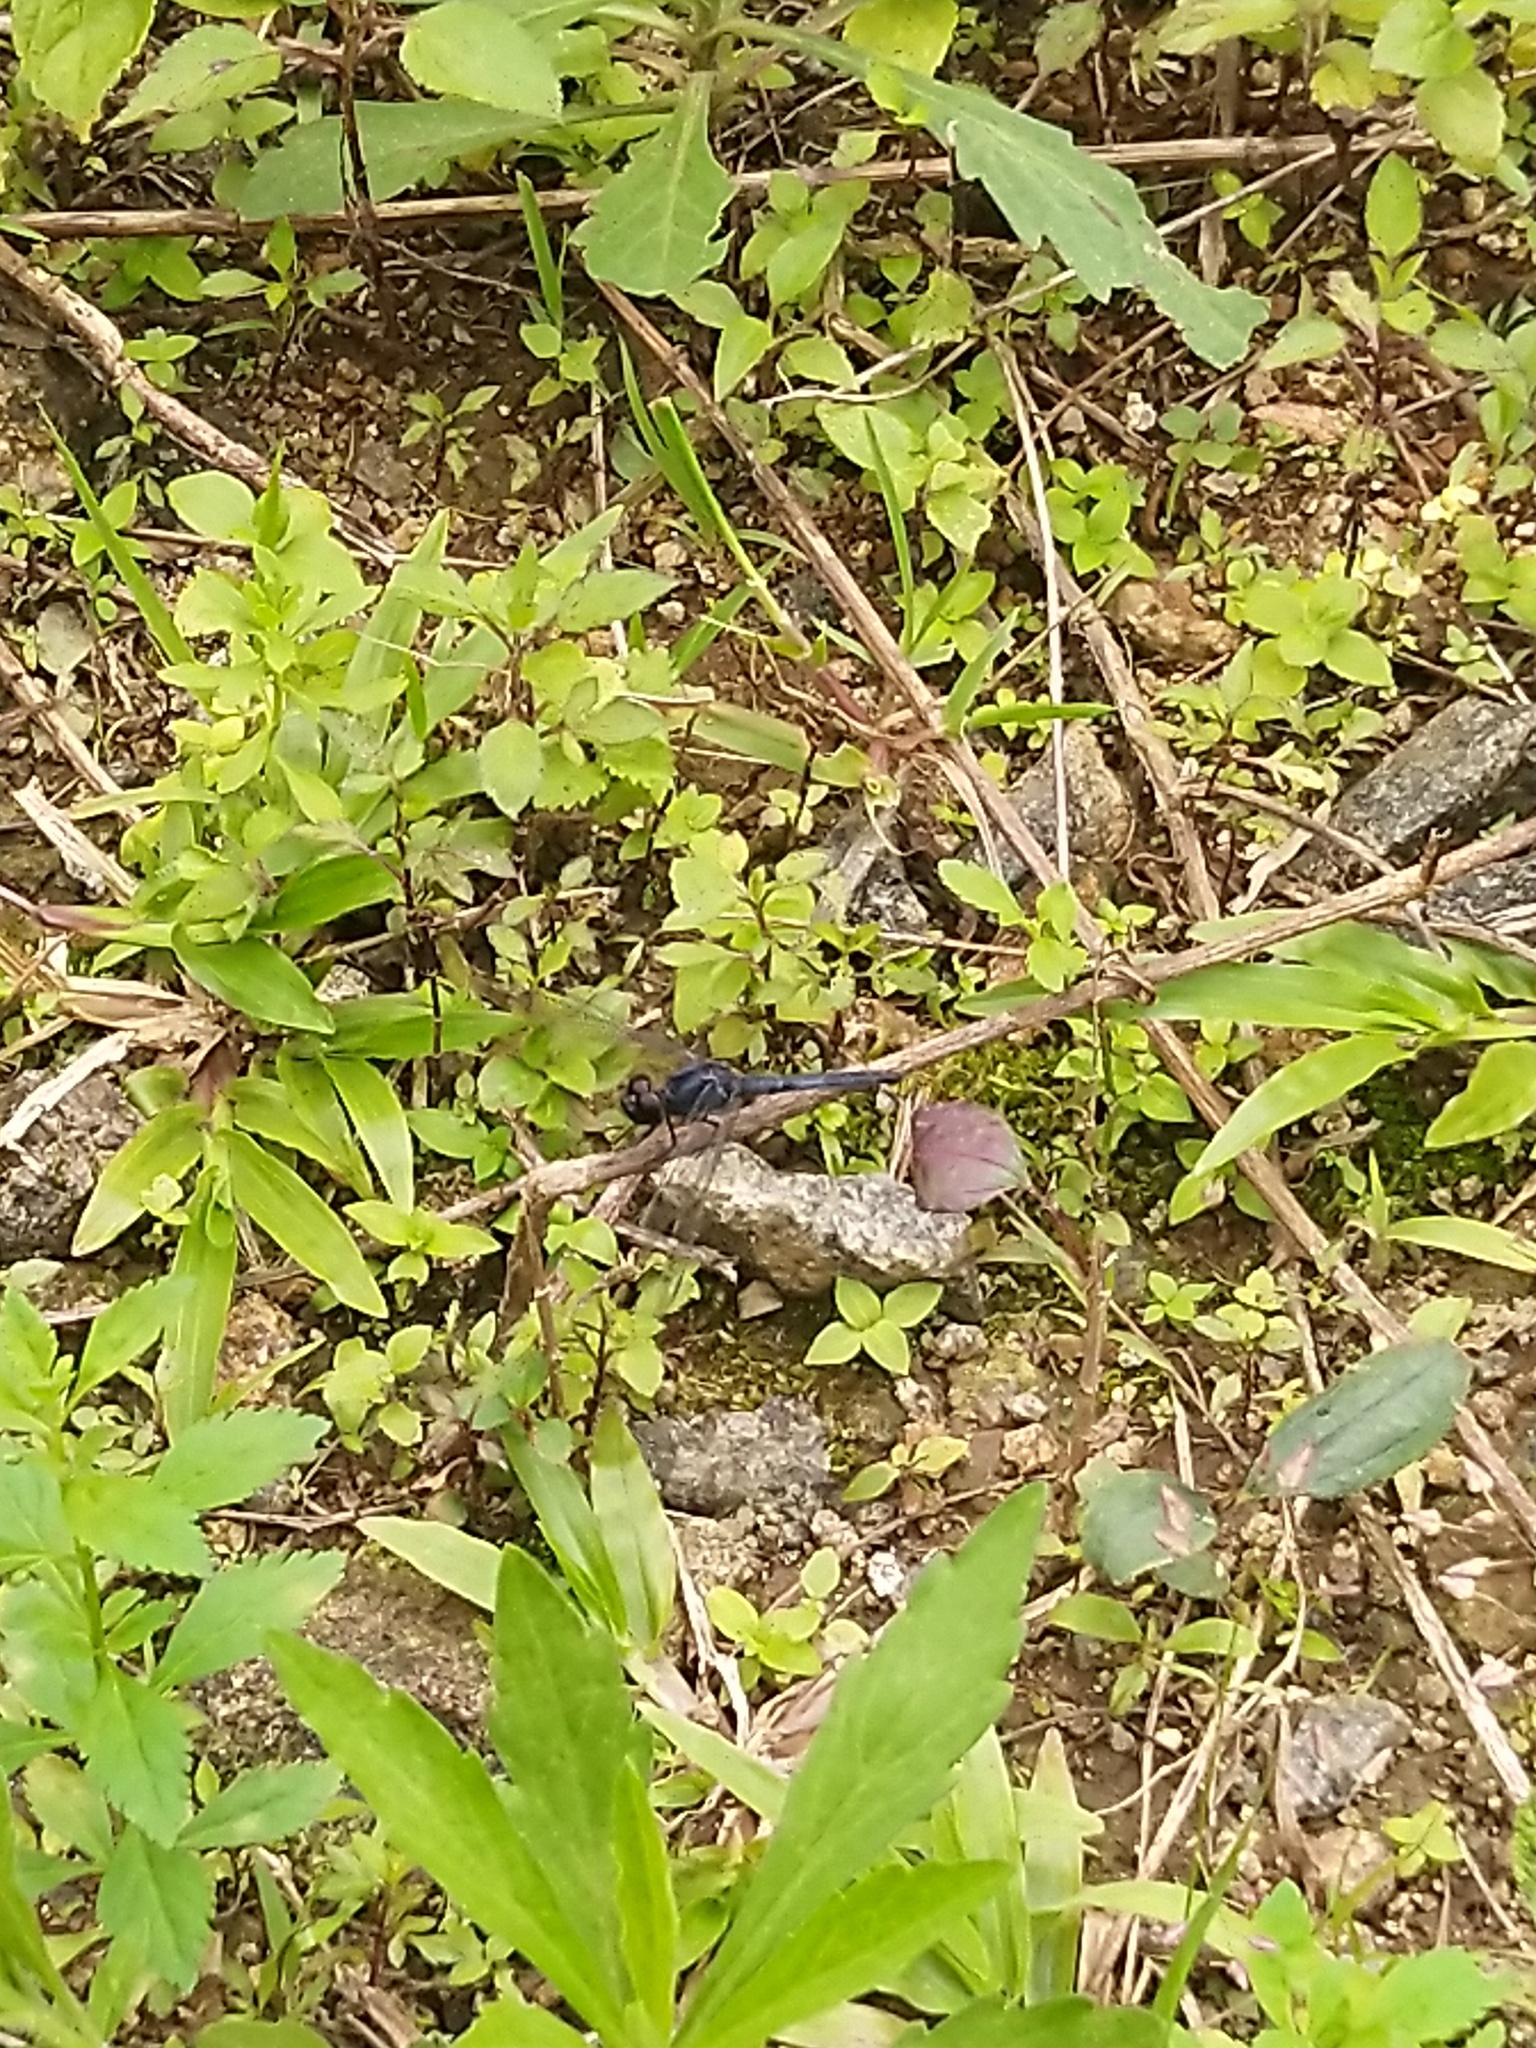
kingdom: Animalia
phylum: Arthropoda
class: Insecta
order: Odonata
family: Libellulidae
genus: Trithemis
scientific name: Trithemis festiva
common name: Indigo dropwing
